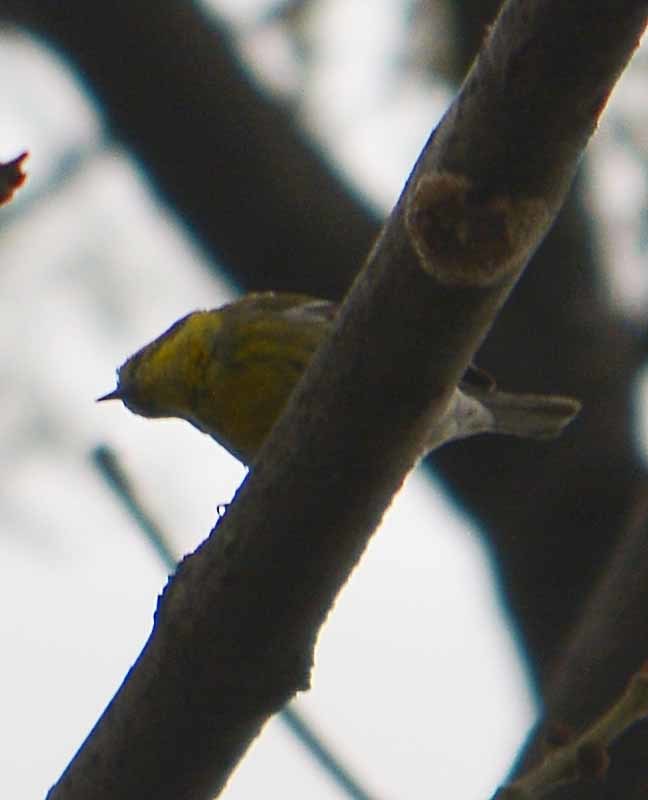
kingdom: Animalia
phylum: Chordata
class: Aves
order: Passeriformes
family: Parulidae
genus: Setophaga
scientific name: Setophaga townsendi
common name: Townsend's warbler
